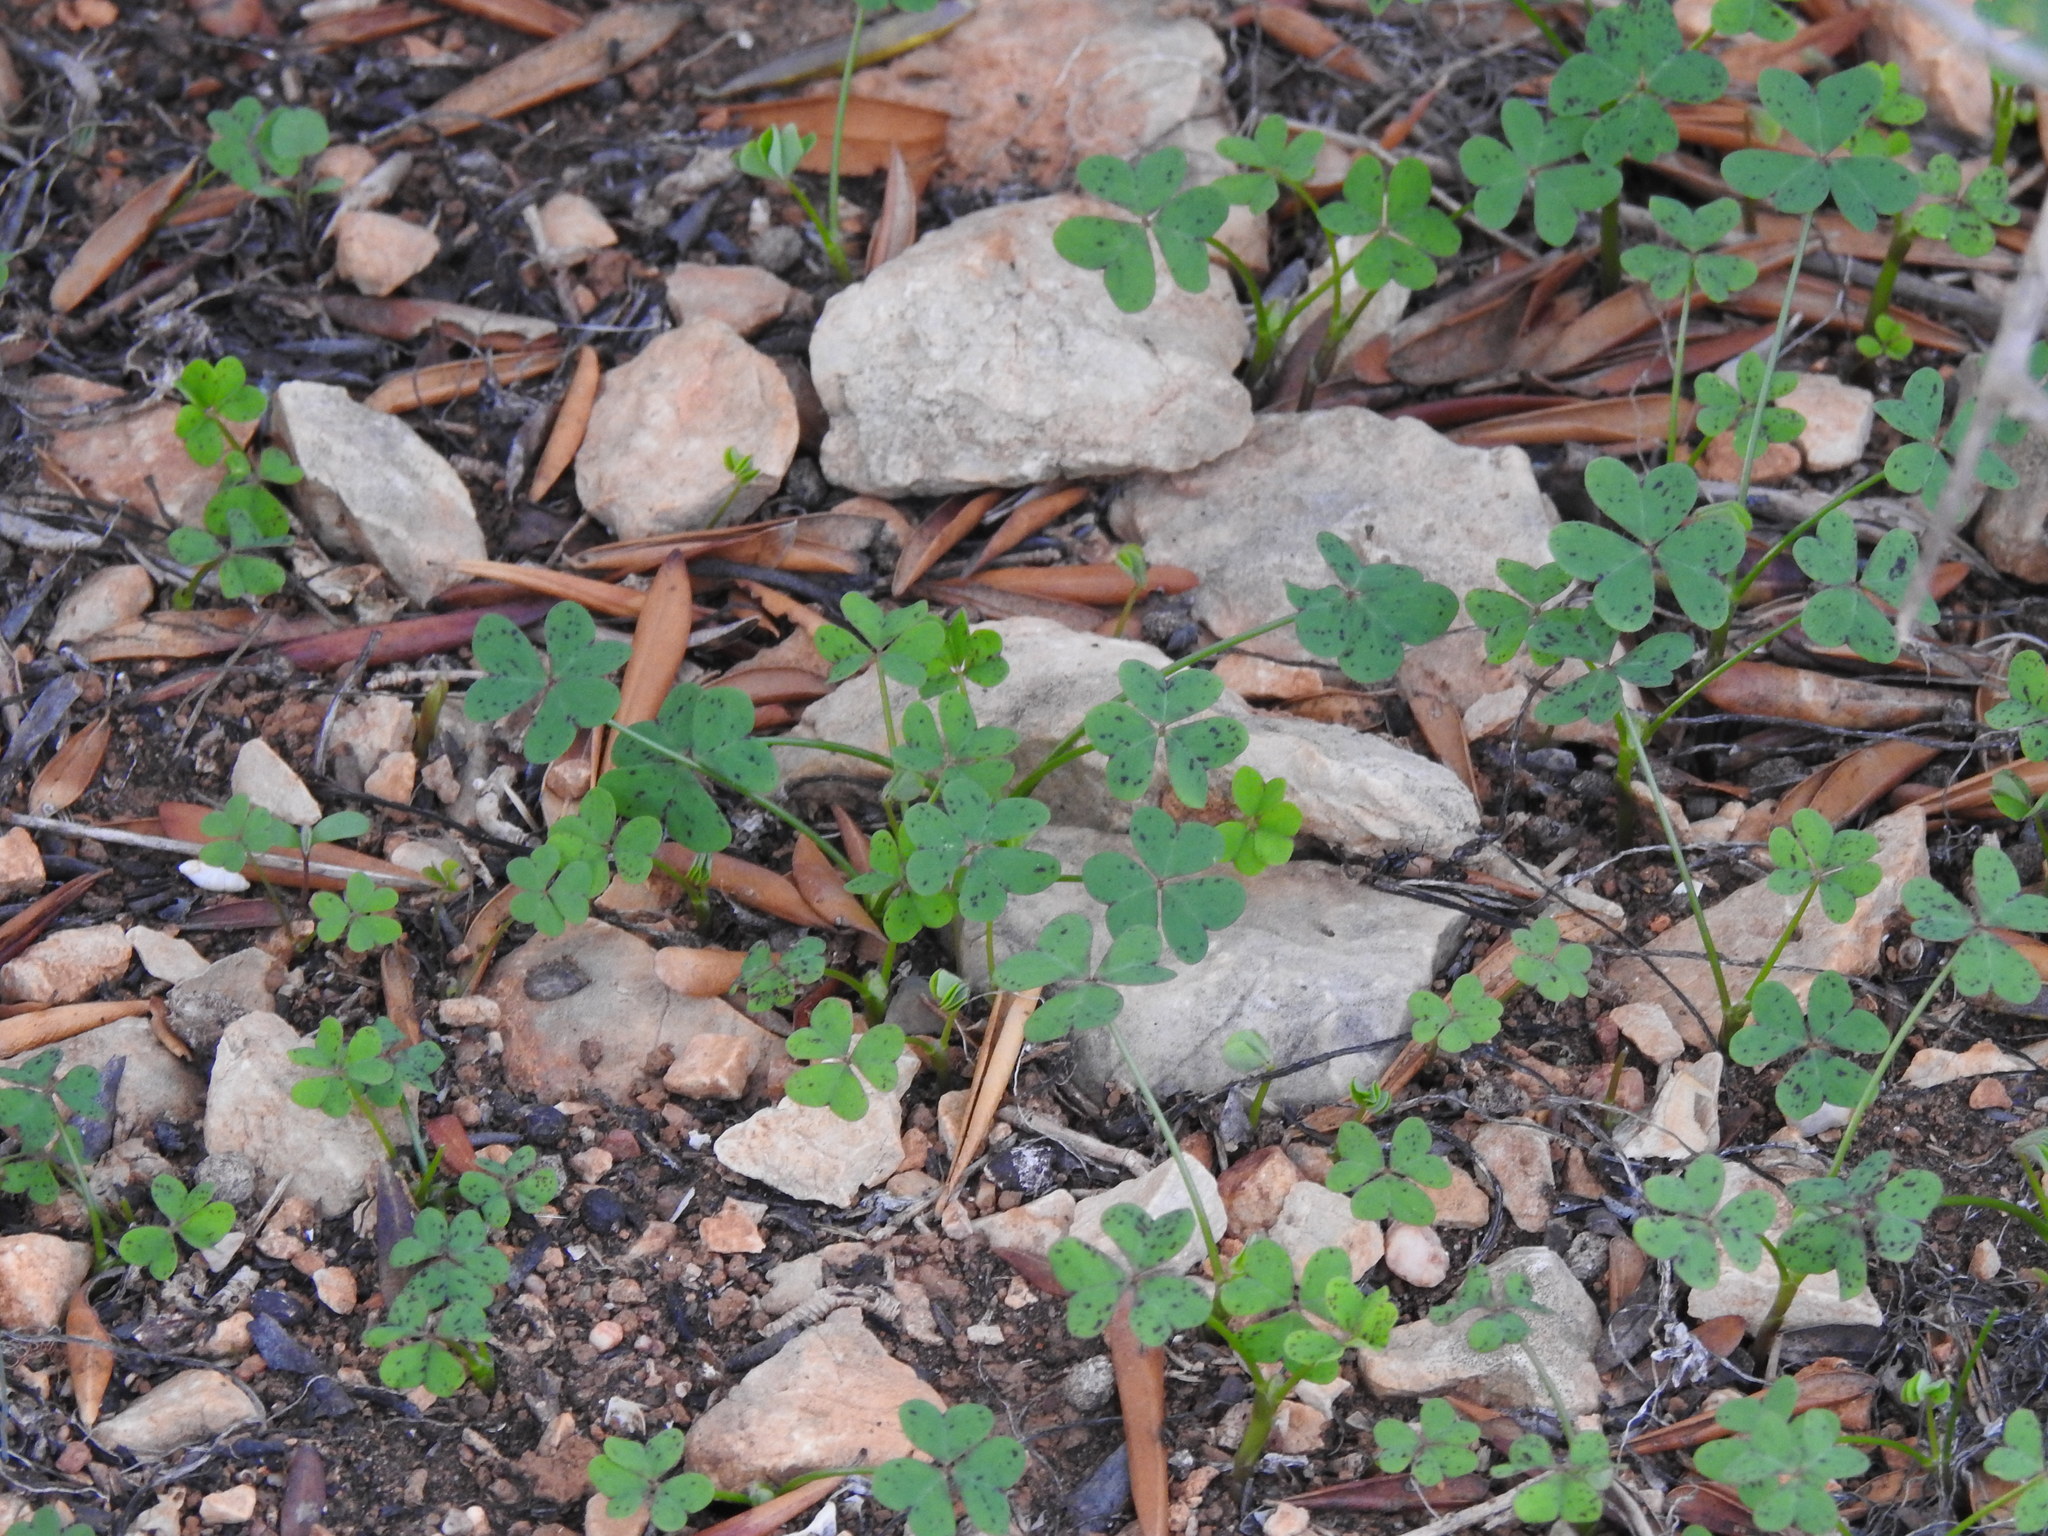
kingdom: Plantae
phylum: Tracheophyta
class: Magnoliopsida
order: Oxalidales
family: Oxalidaceae
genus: Oxalis
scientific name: Oxalis pes-caprae
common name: Bermuda-buttercup
